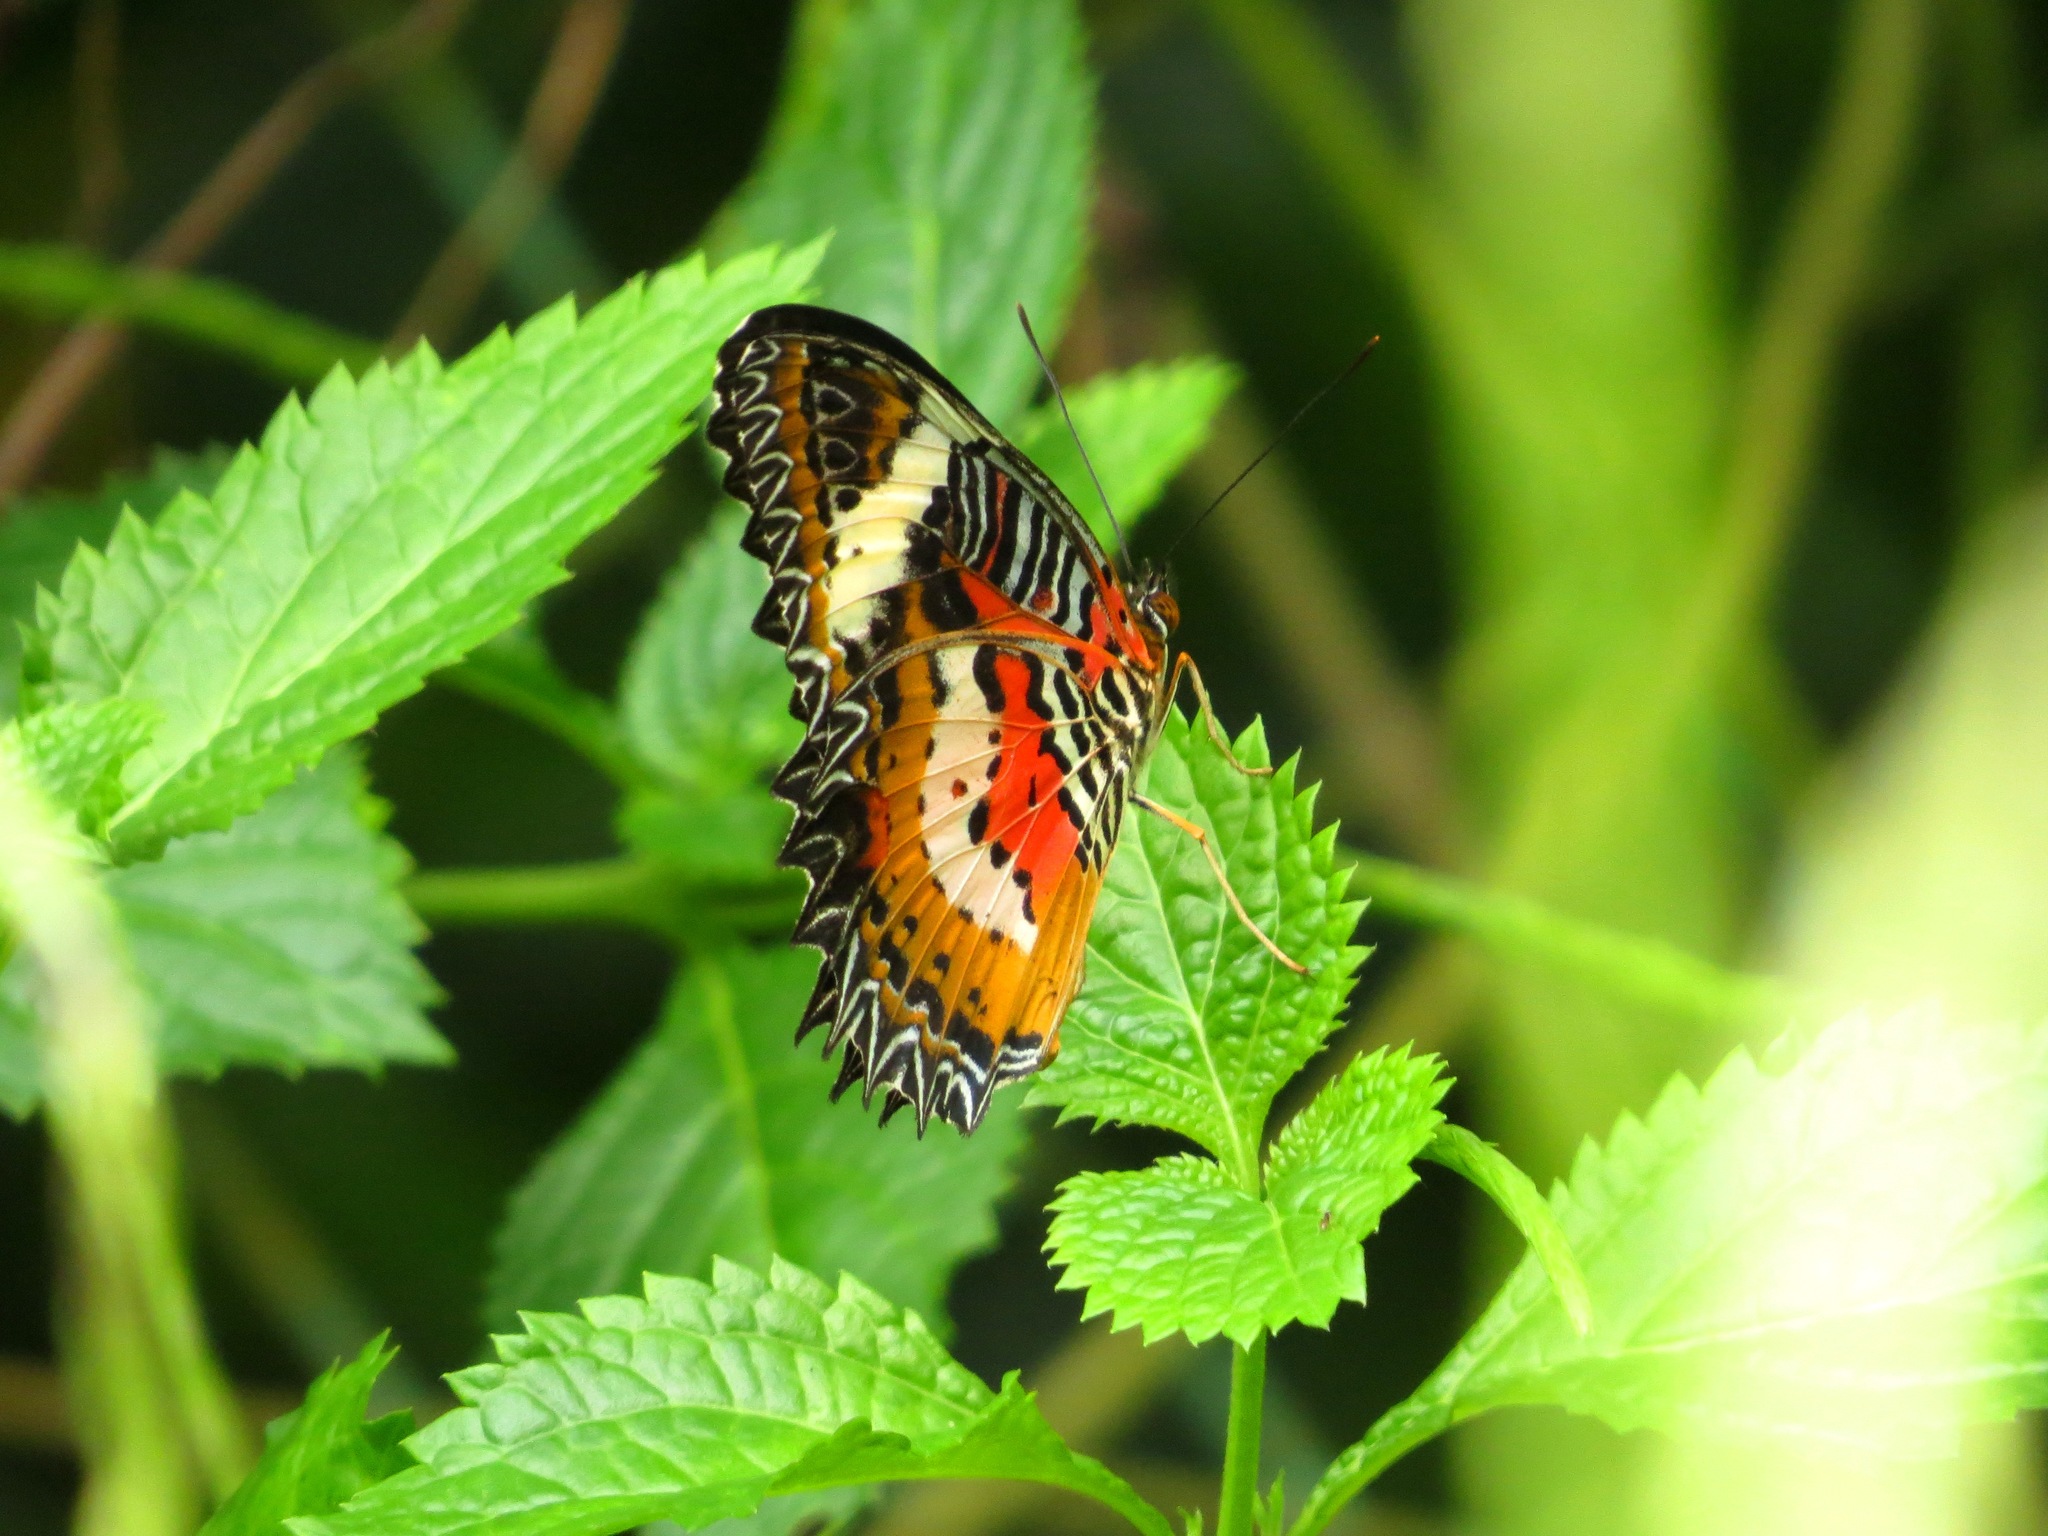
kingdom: Animalia
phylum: Arthropoda
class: Insecta
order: Lepidoptera
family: Nymphalidae
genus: Cethosia
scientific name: Cethosia hypsea
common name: Malayan lacewing butterfly
